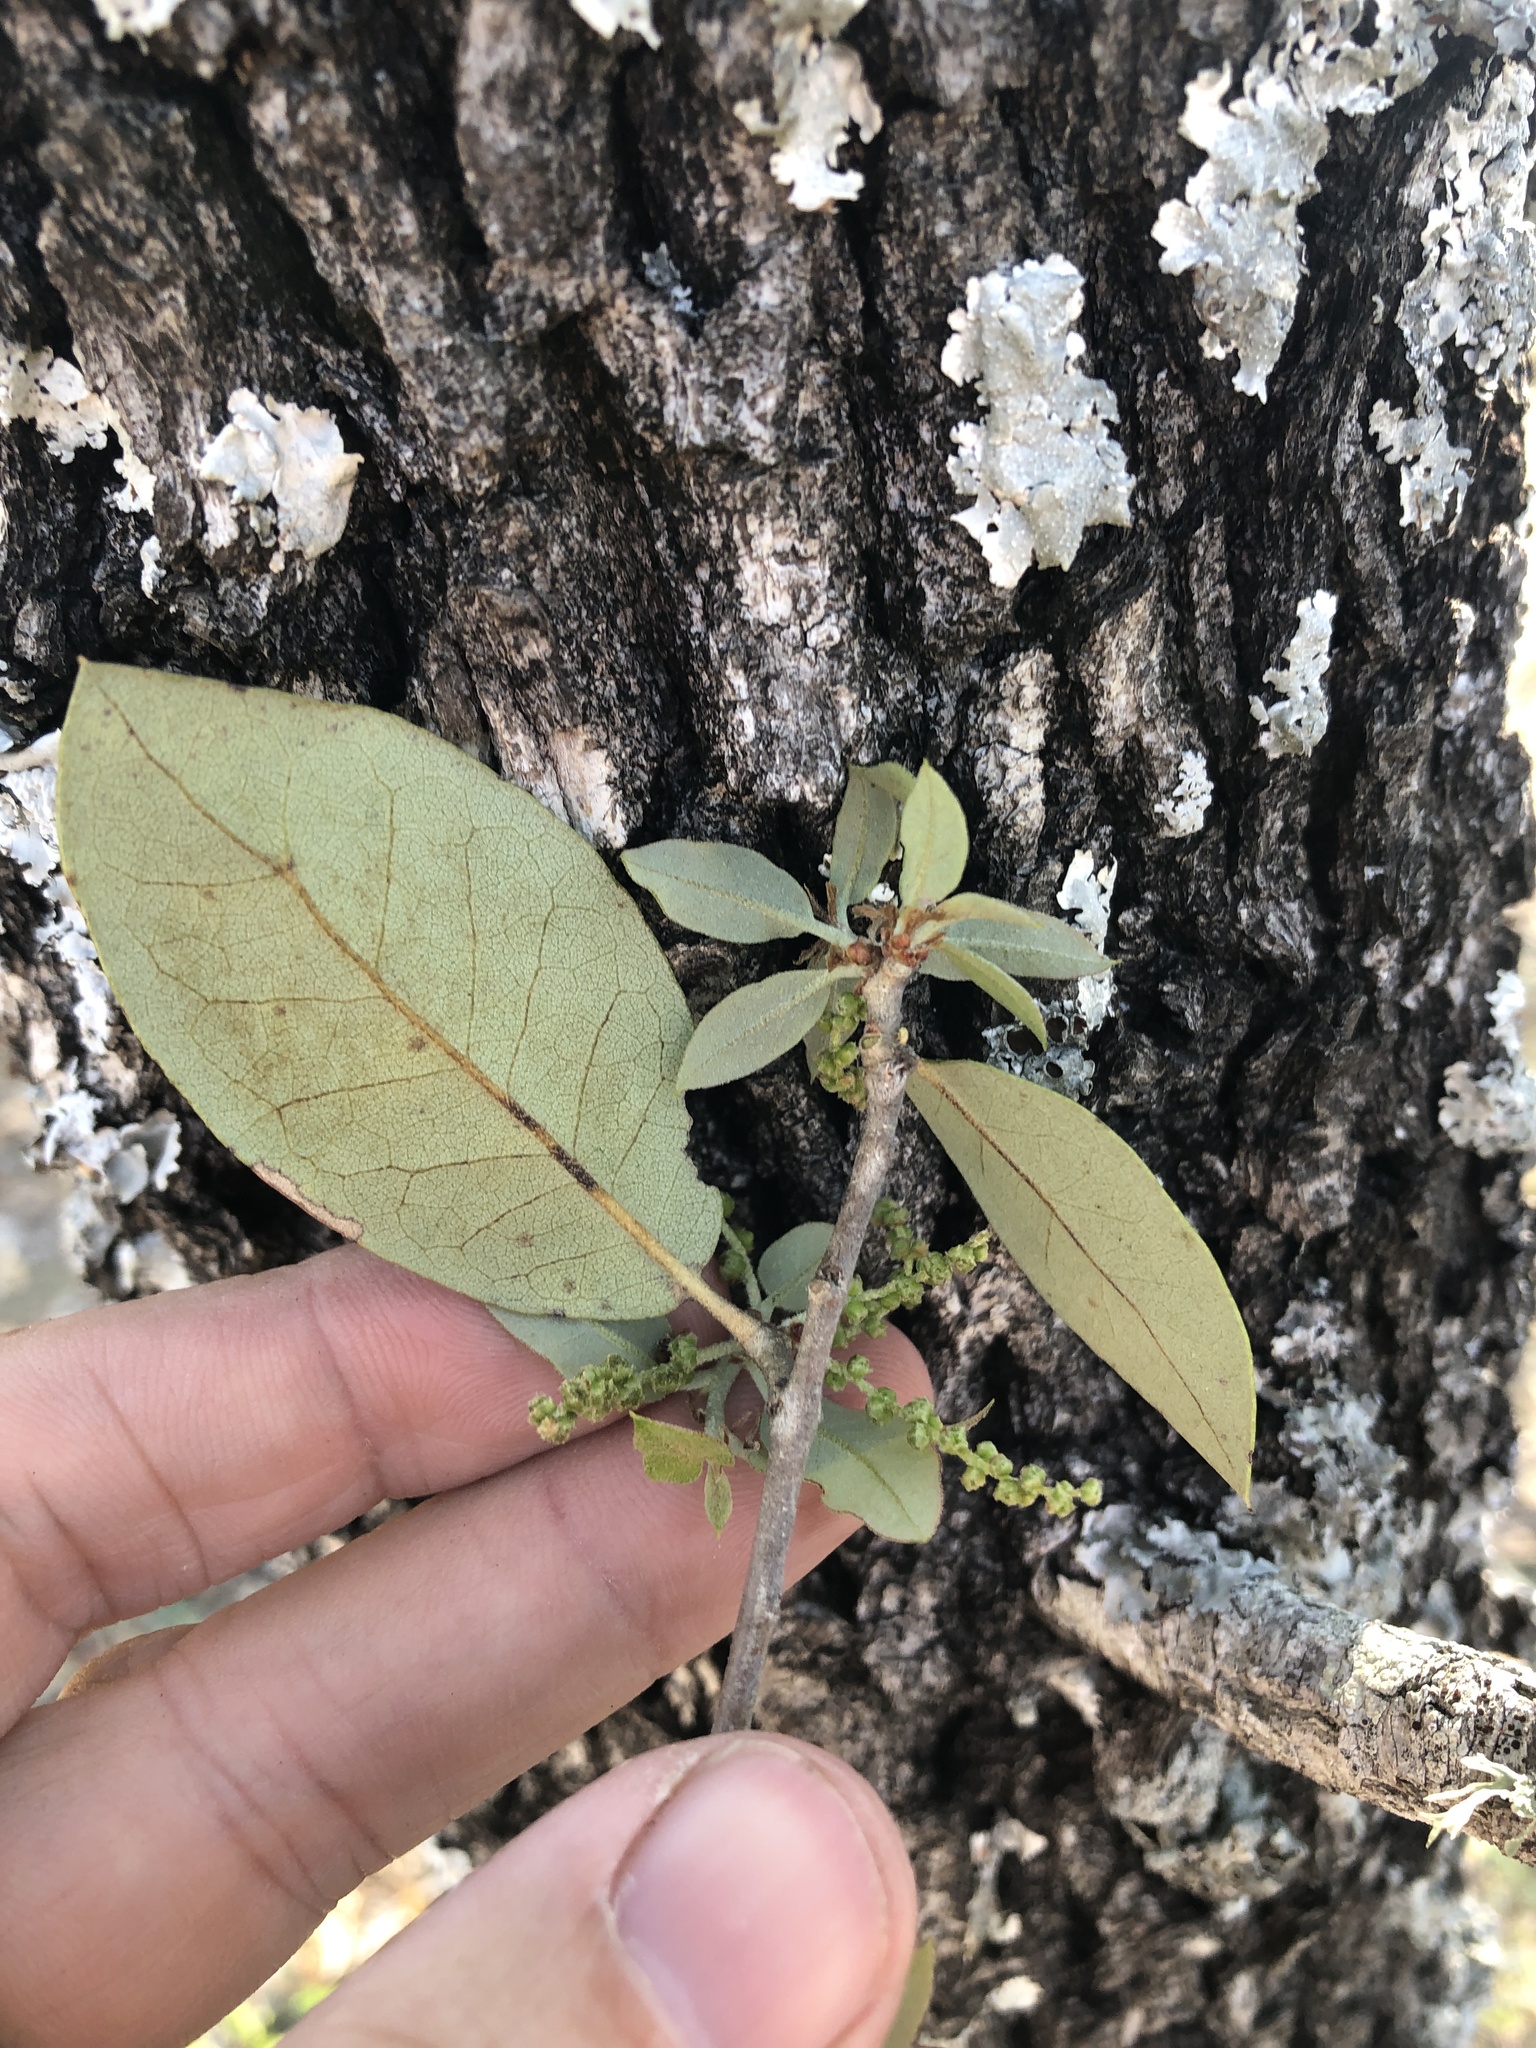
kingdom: Plantae
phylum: Tracheophyta
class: Magnoliopsida
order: Fagales
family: Fagaceae
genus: Quercus
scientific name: Quercus fusiformis
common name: Texas live oak
